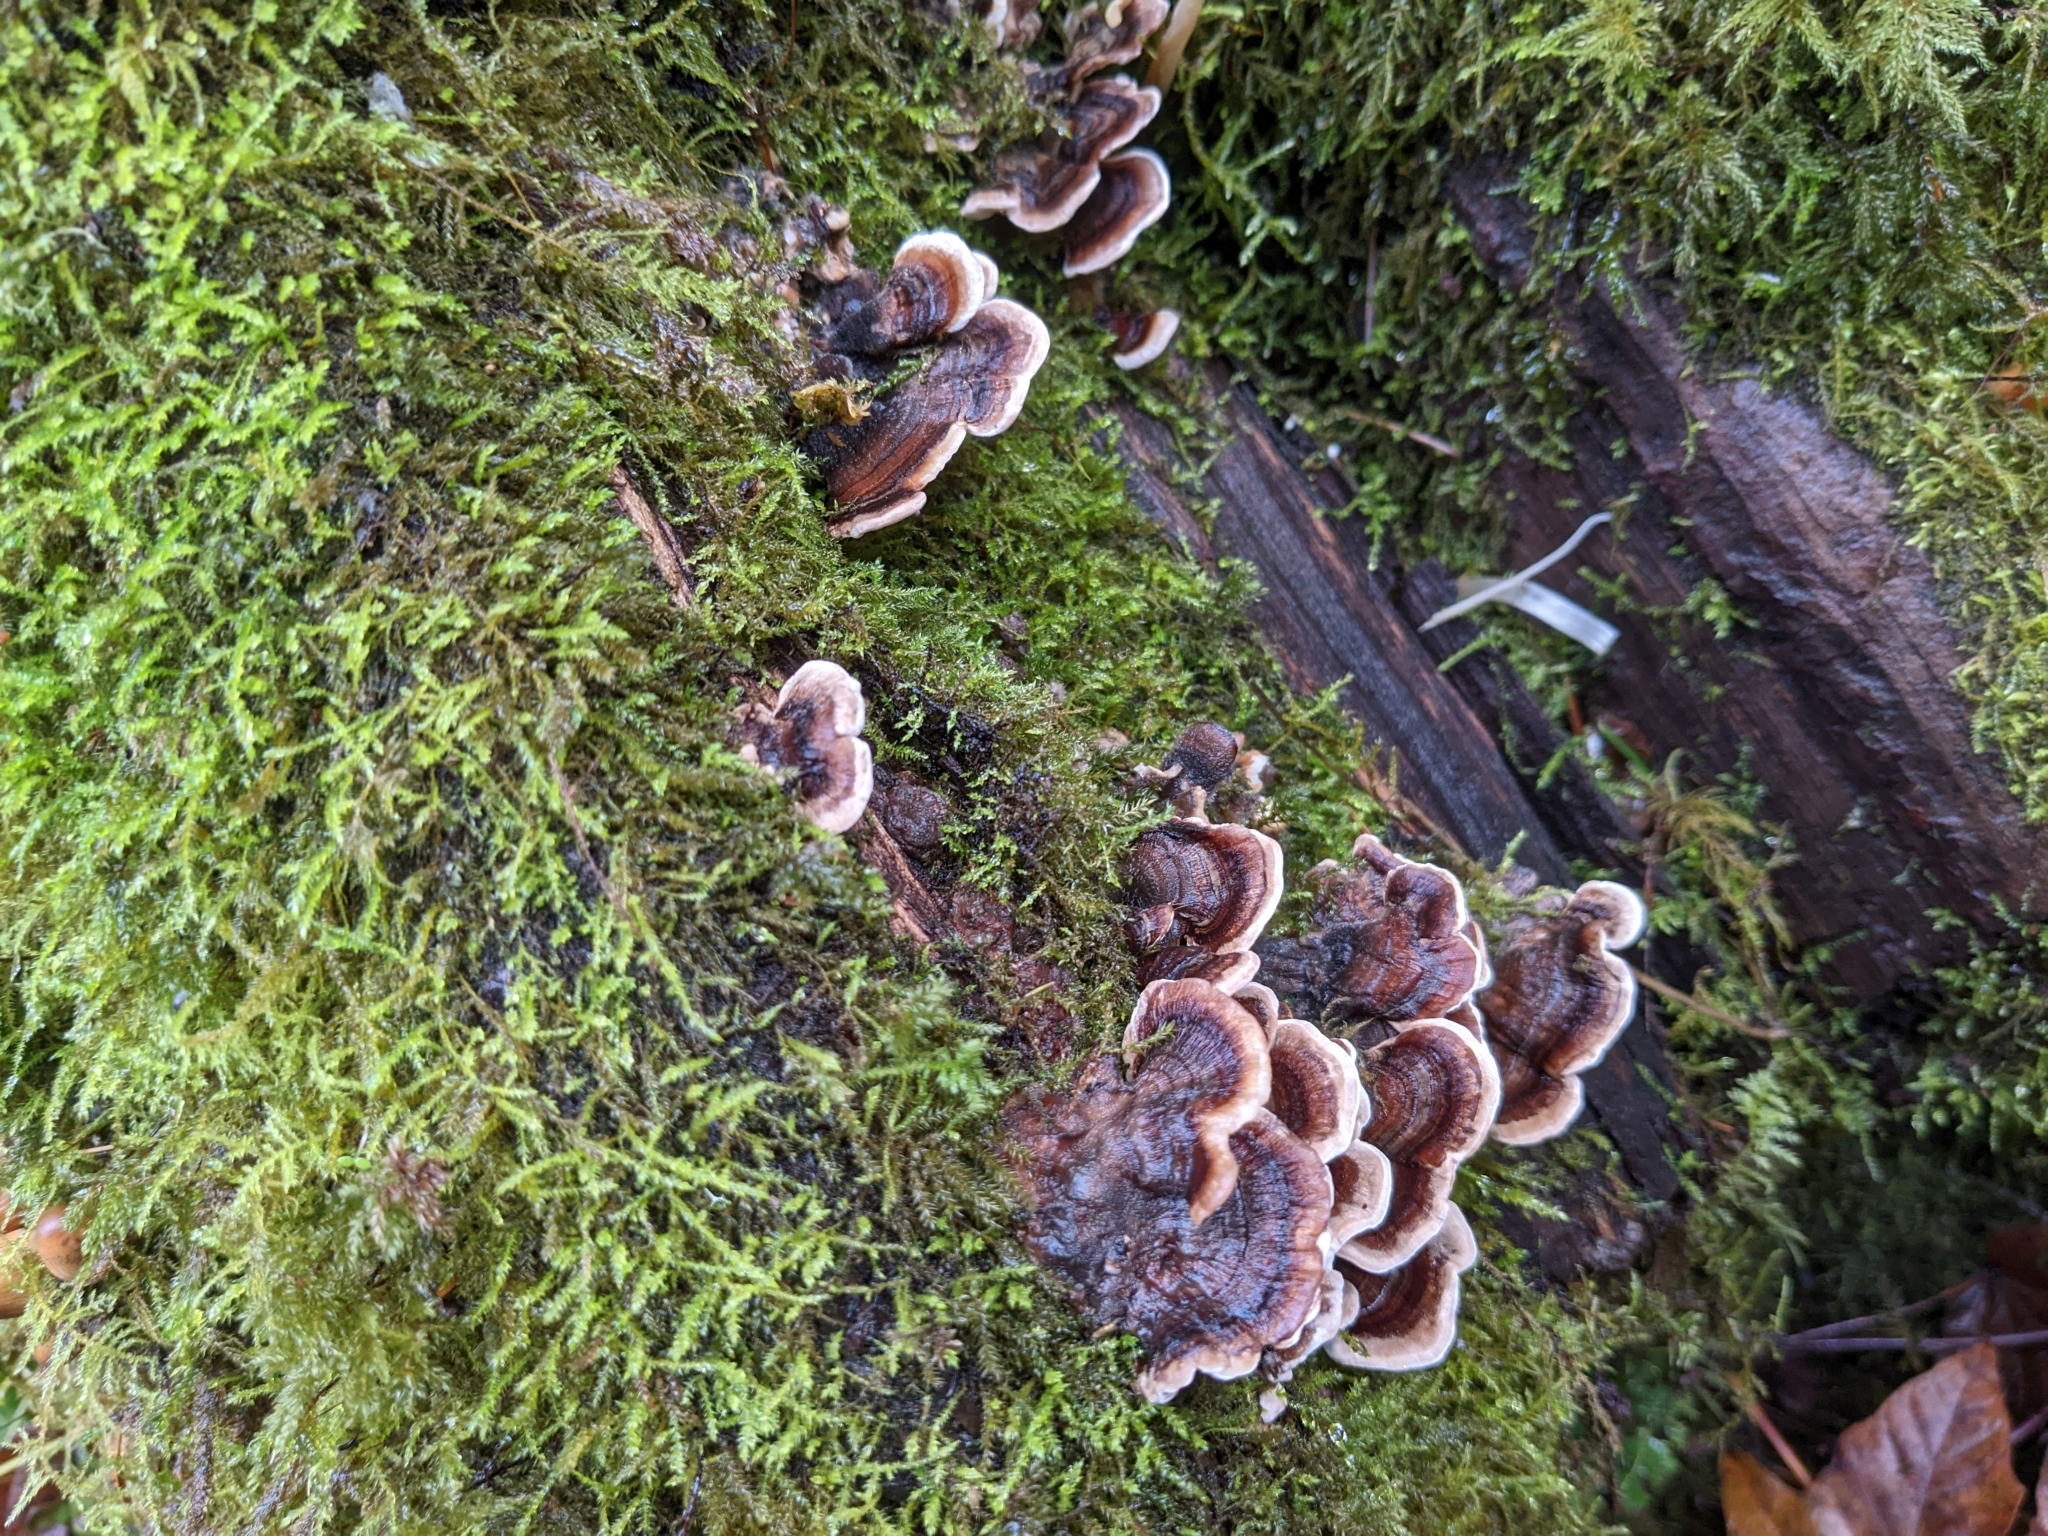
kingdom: Fungi
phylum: Basidiomycota
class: Agaricomycetes
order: Polyporales
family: Polyporaceae
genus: Trametes
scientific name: Trametes versicolor
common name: Turkeytail
